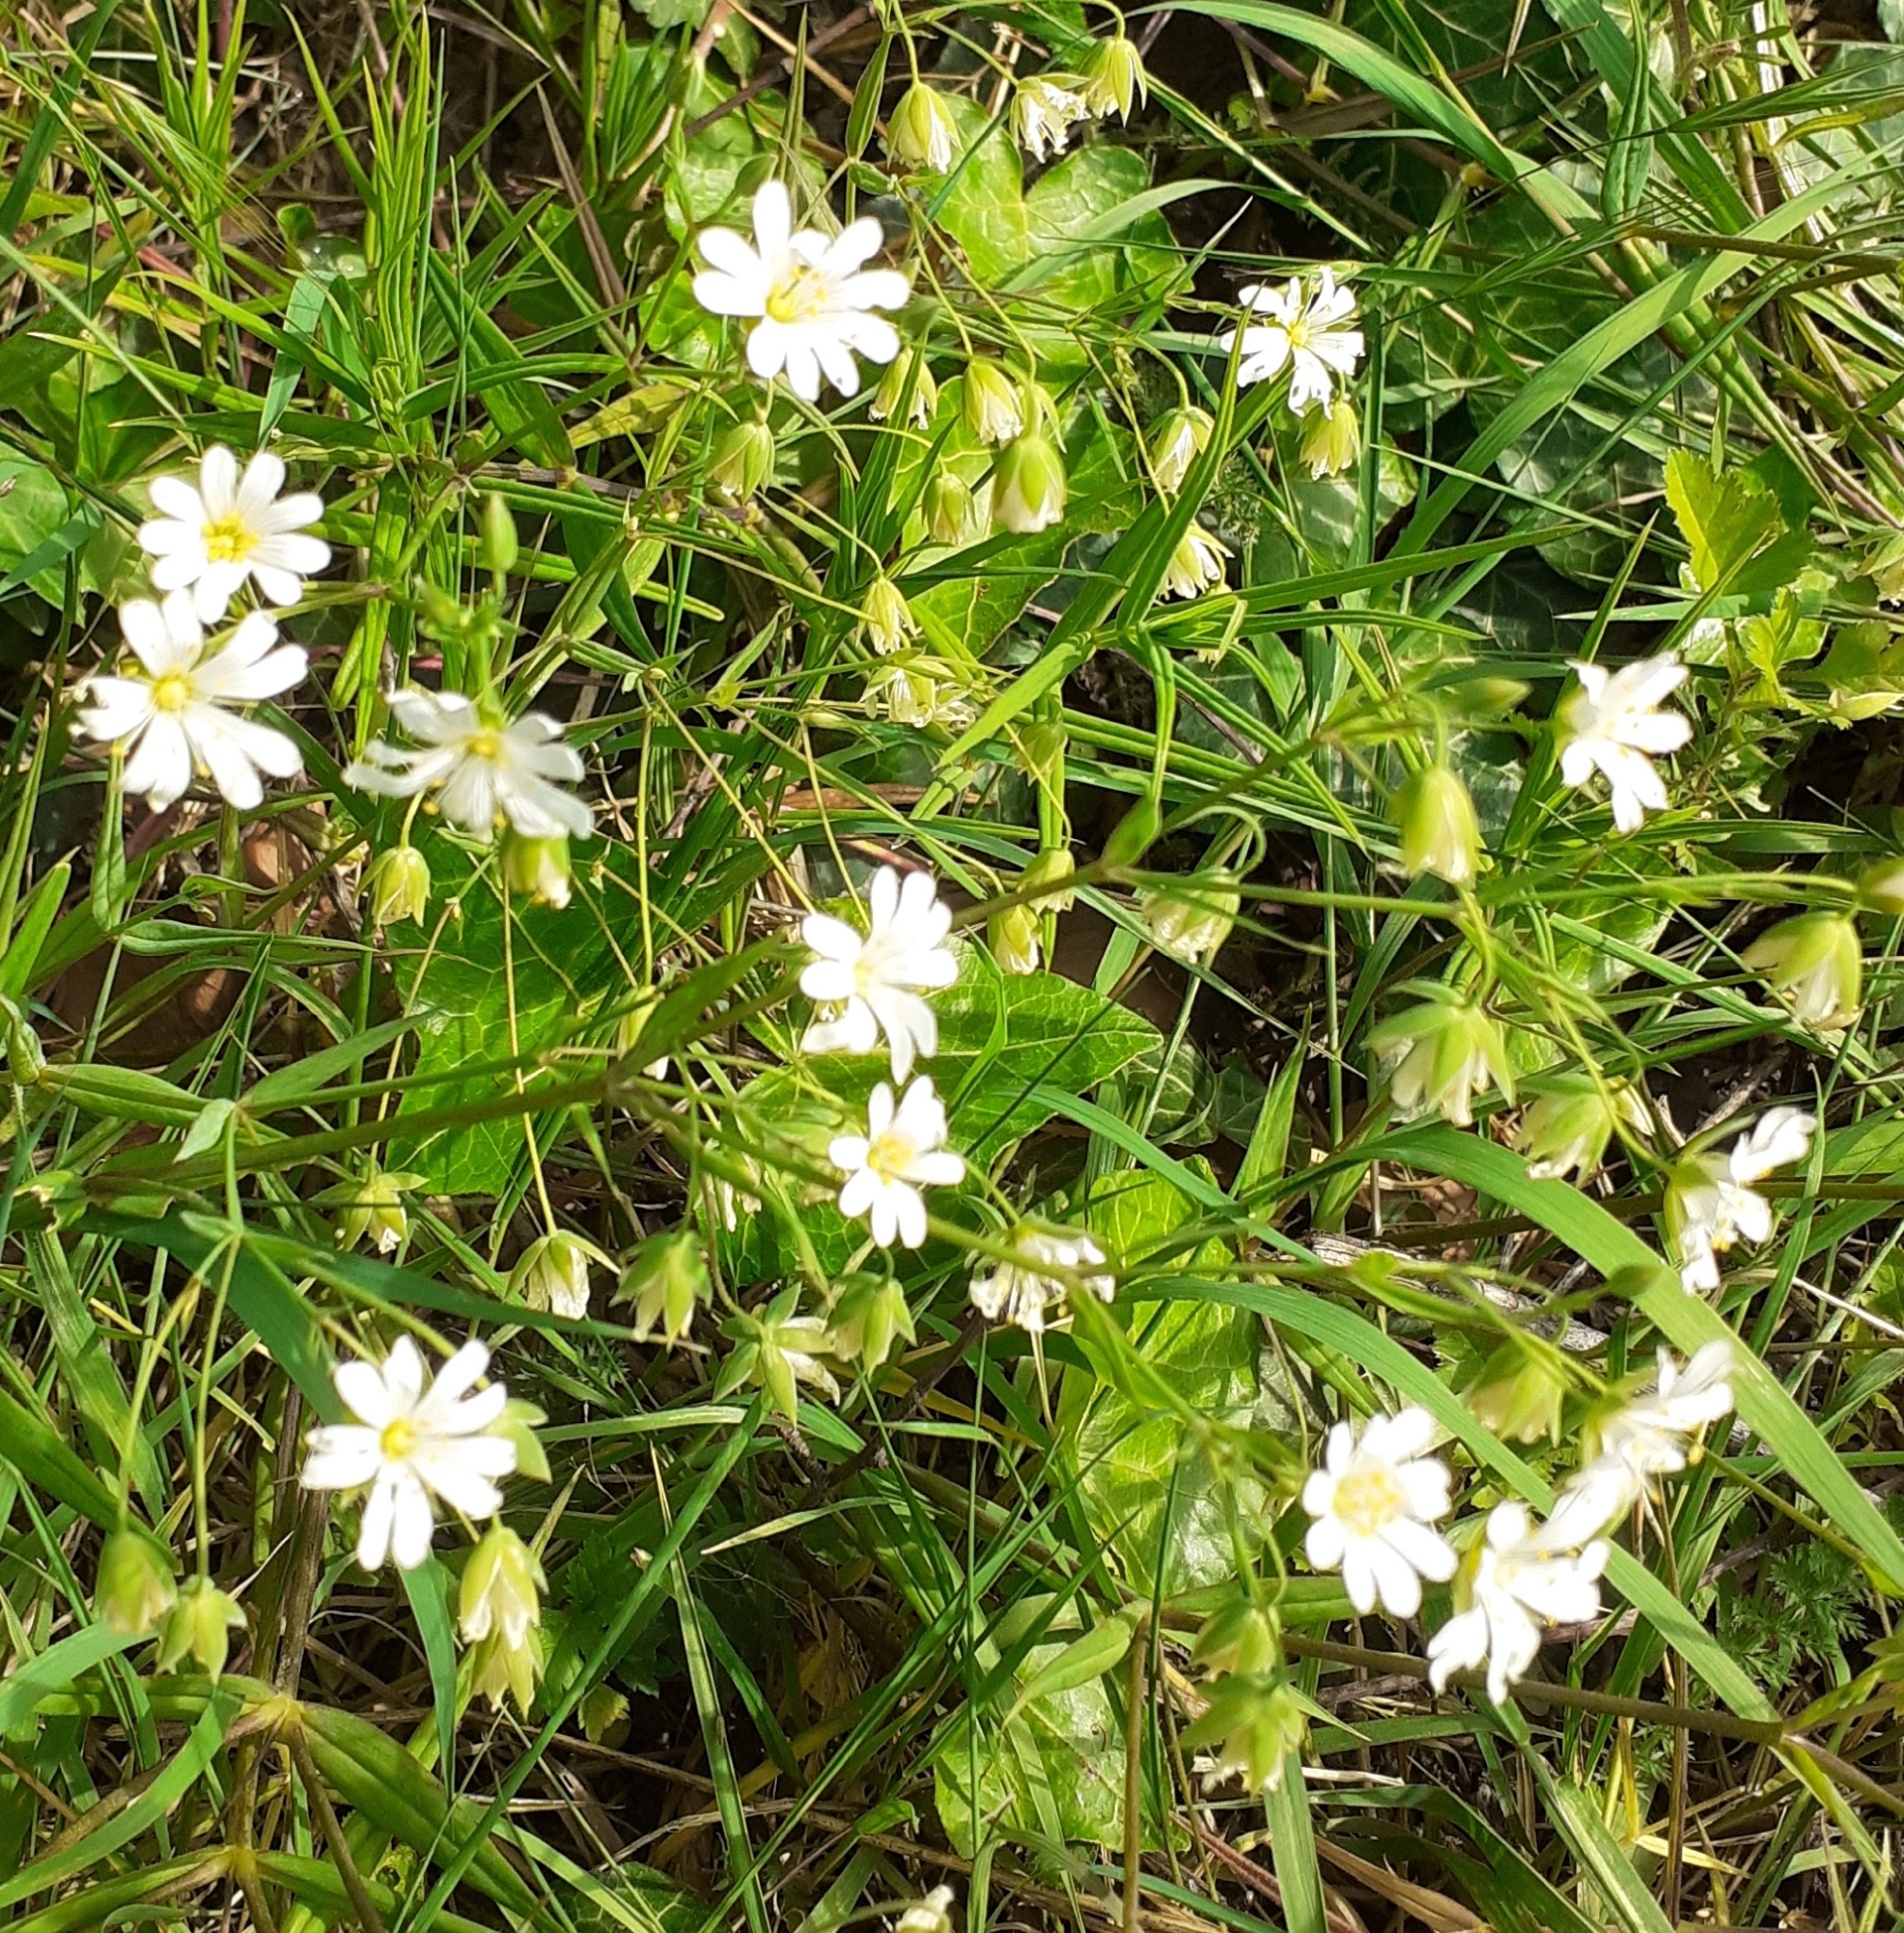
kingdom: Plantae
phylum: Tracheophyta
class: Magnoliopsida
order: Caryophyllales
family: Caryophyllaceae
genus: Rabelera
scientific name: Rabelera holostea
